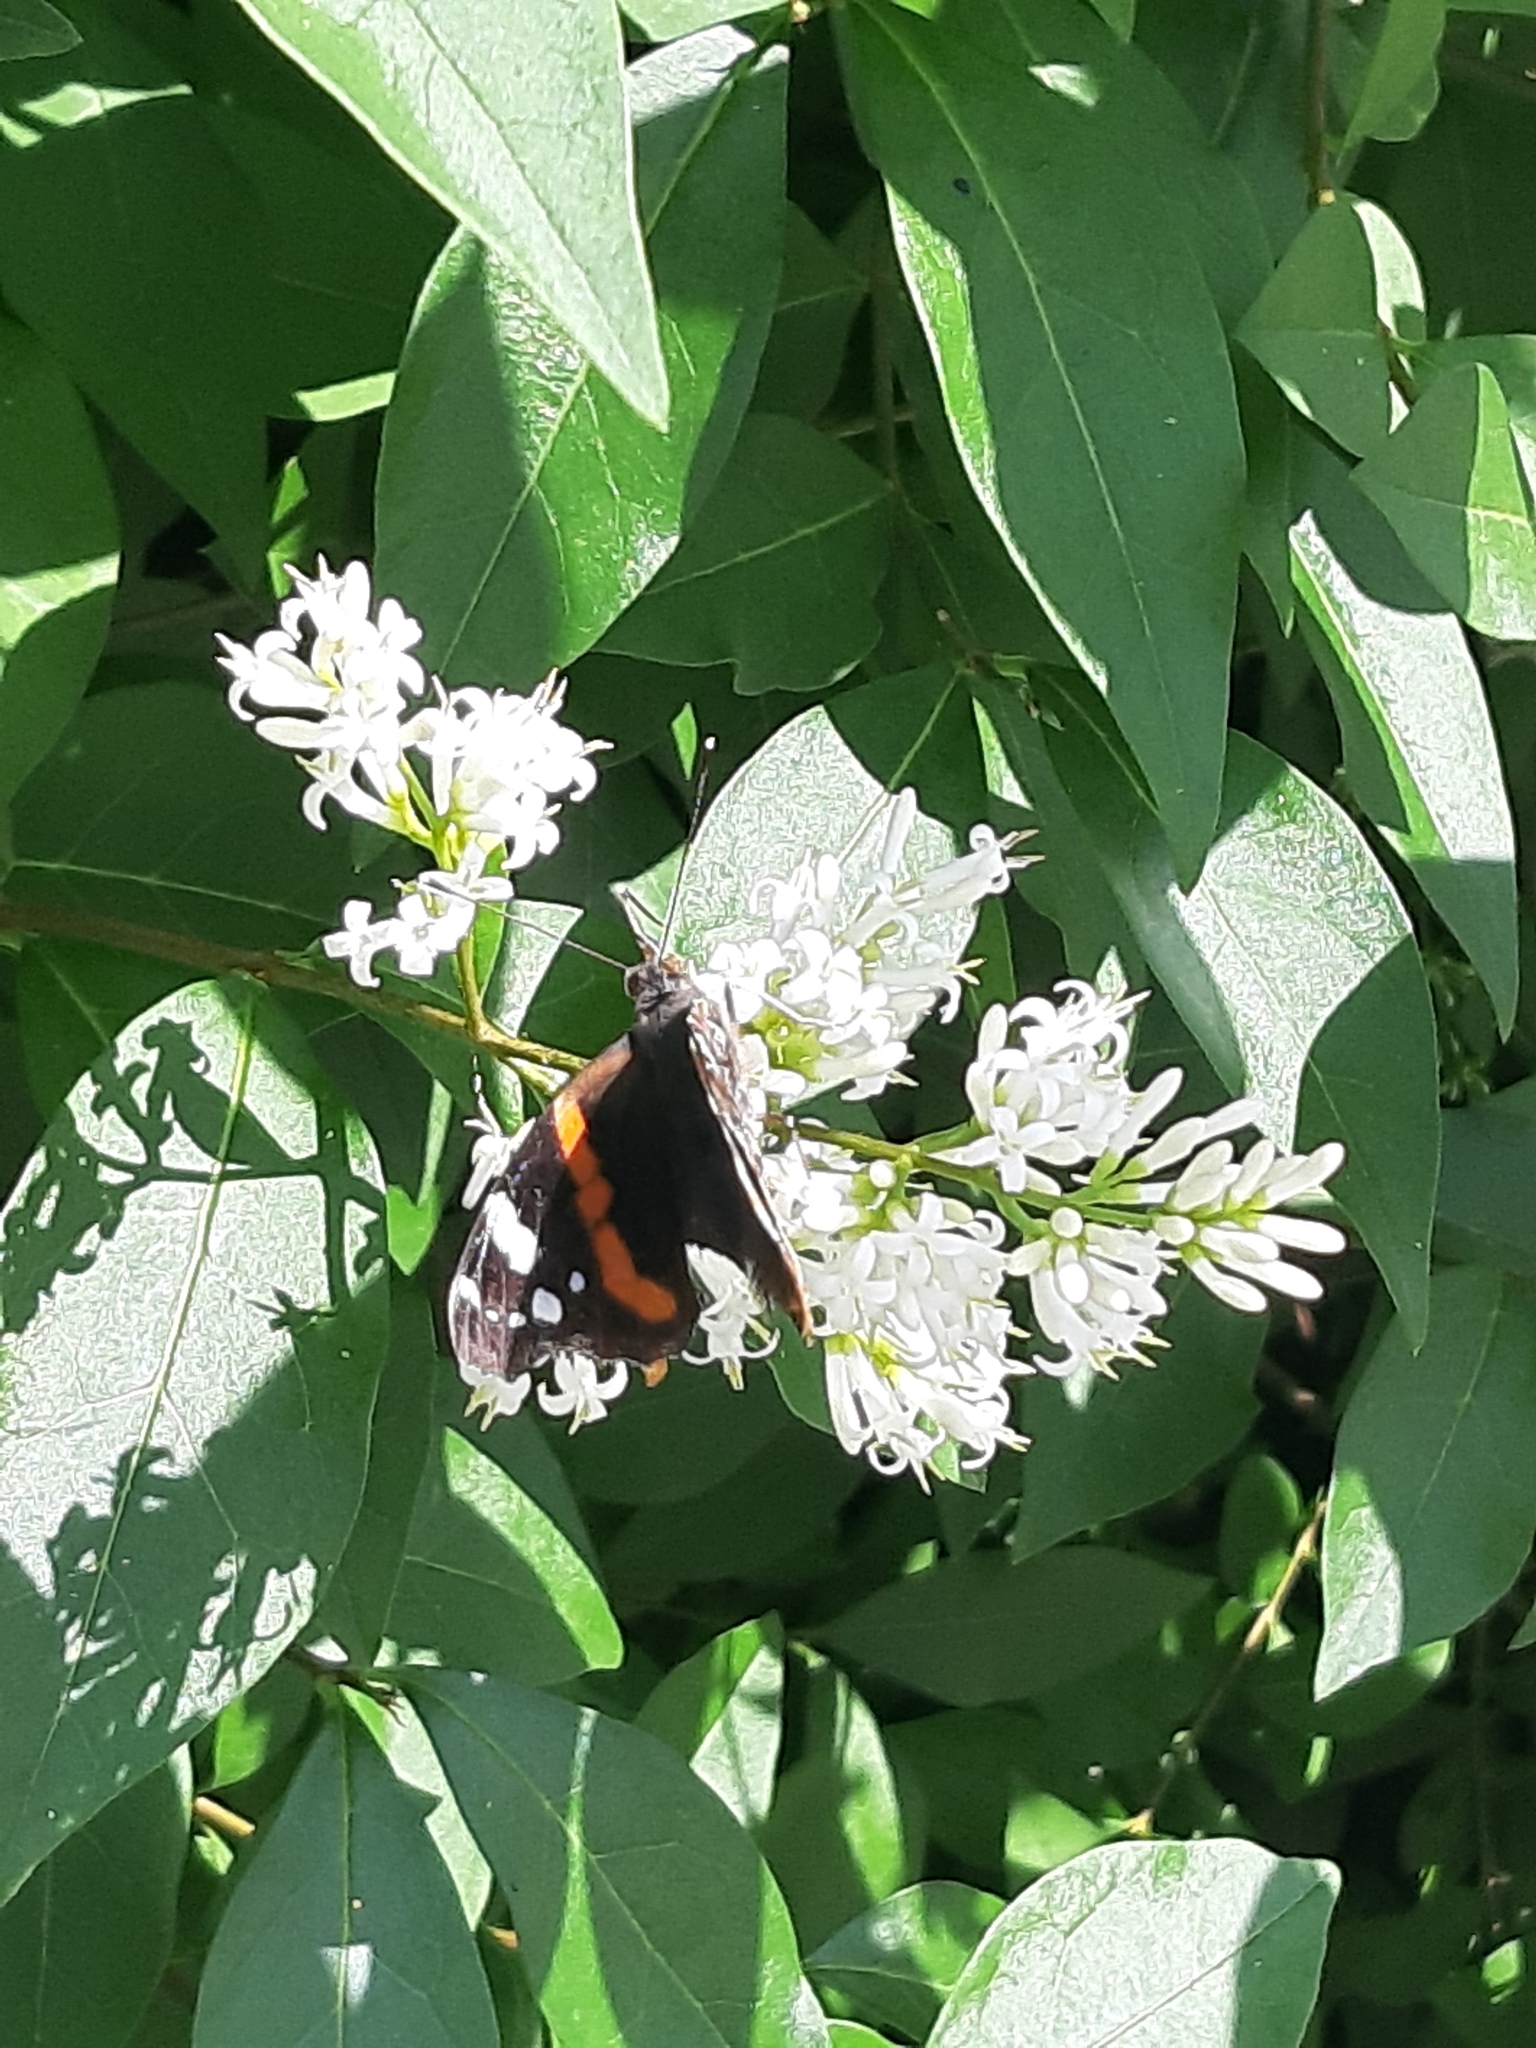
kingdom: Animalia
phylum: Arthropoda
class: Insecta
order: Lepidoptera
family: Nymphalidae
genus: Vanessa
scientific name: Vanessa atalanta
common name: Red admiral
